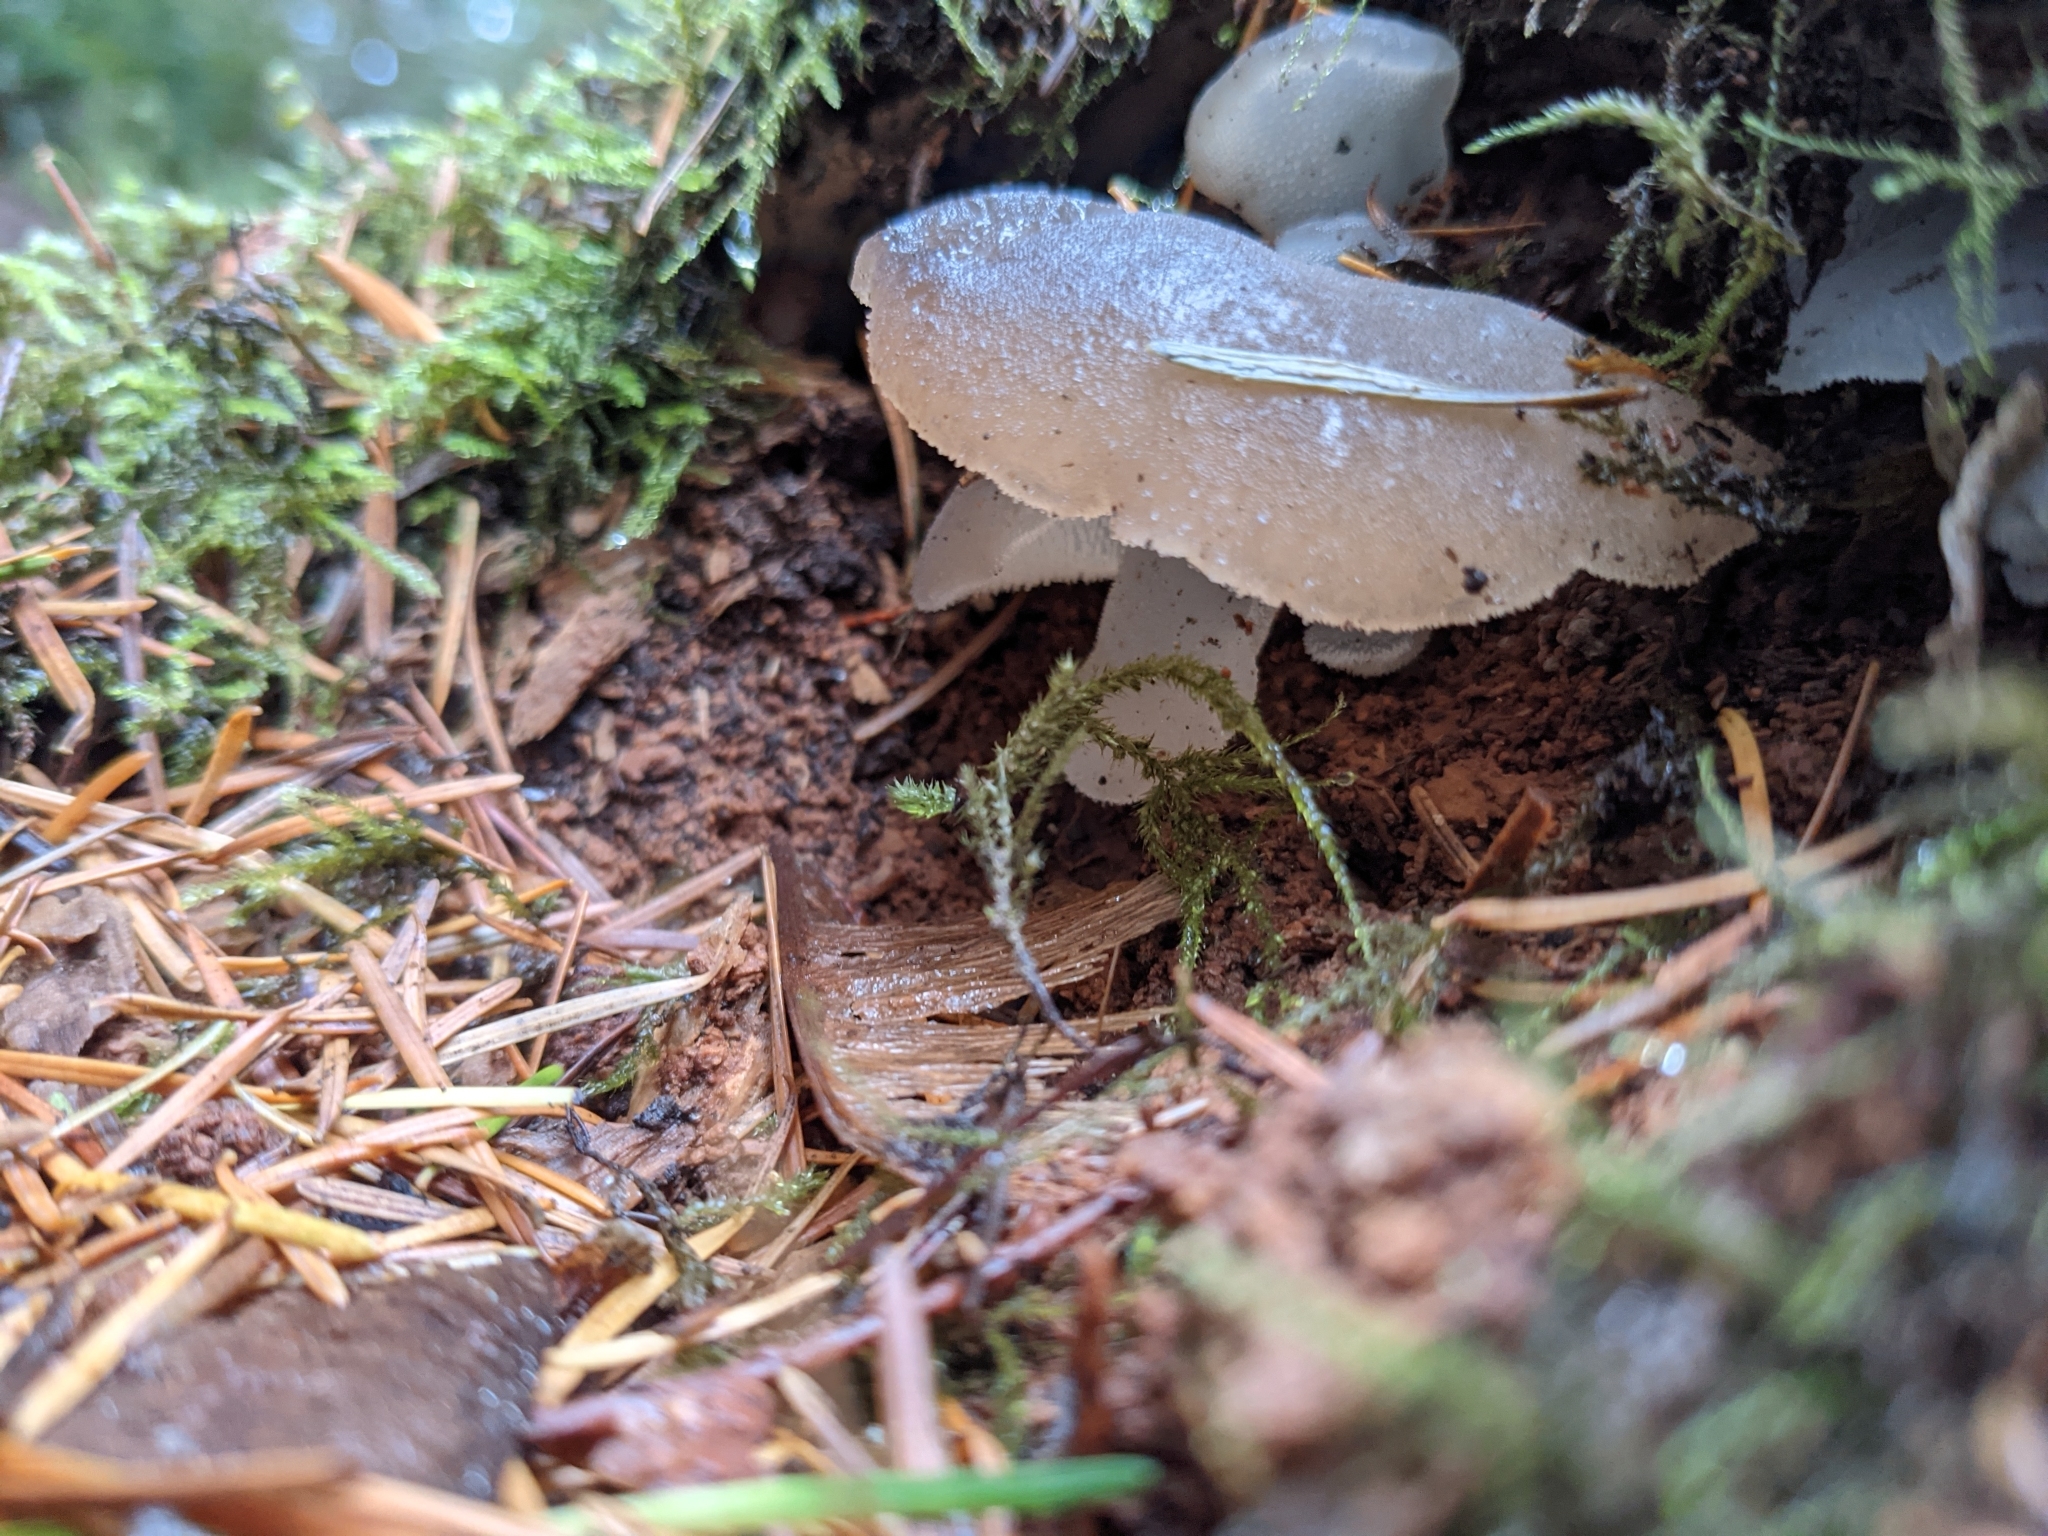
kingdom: Fungi
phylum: Basidiomycota
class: Agaricomycetes
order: Auriculariales
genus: Pseudohydnum
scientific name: Pseudohydnum gelatinosum
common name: Jelly tongue
